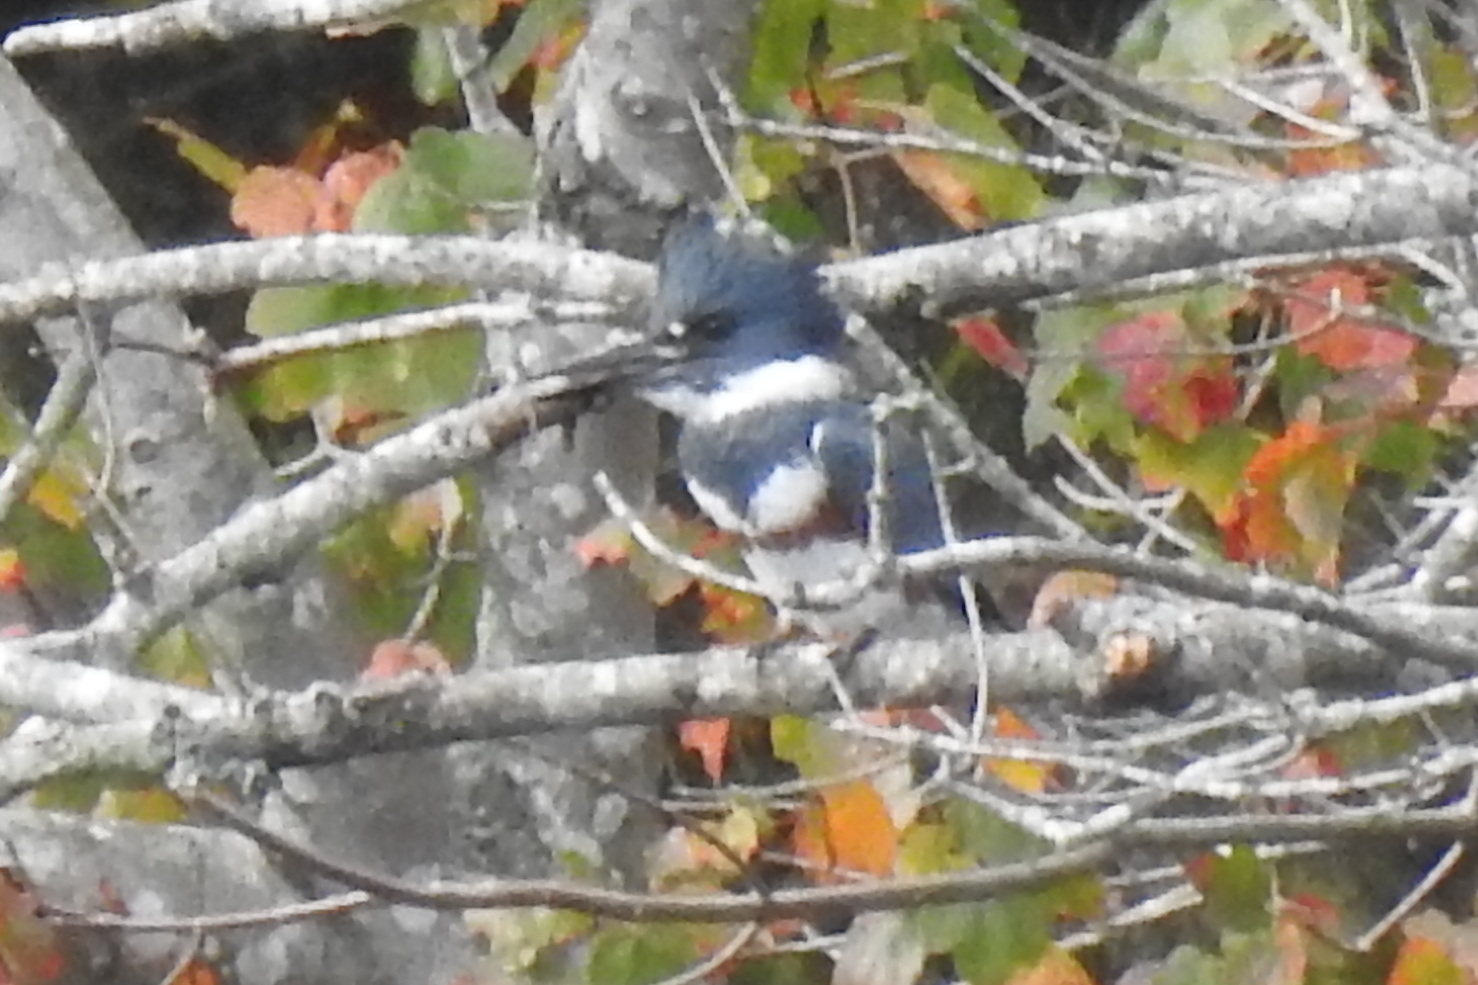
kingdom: Animalia
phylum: Chordata
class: Aves
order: Coraciiformes
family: Alcedinidae
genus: Megaceryle
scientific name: Megaceryle alcyon
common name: Belted kingfisher
